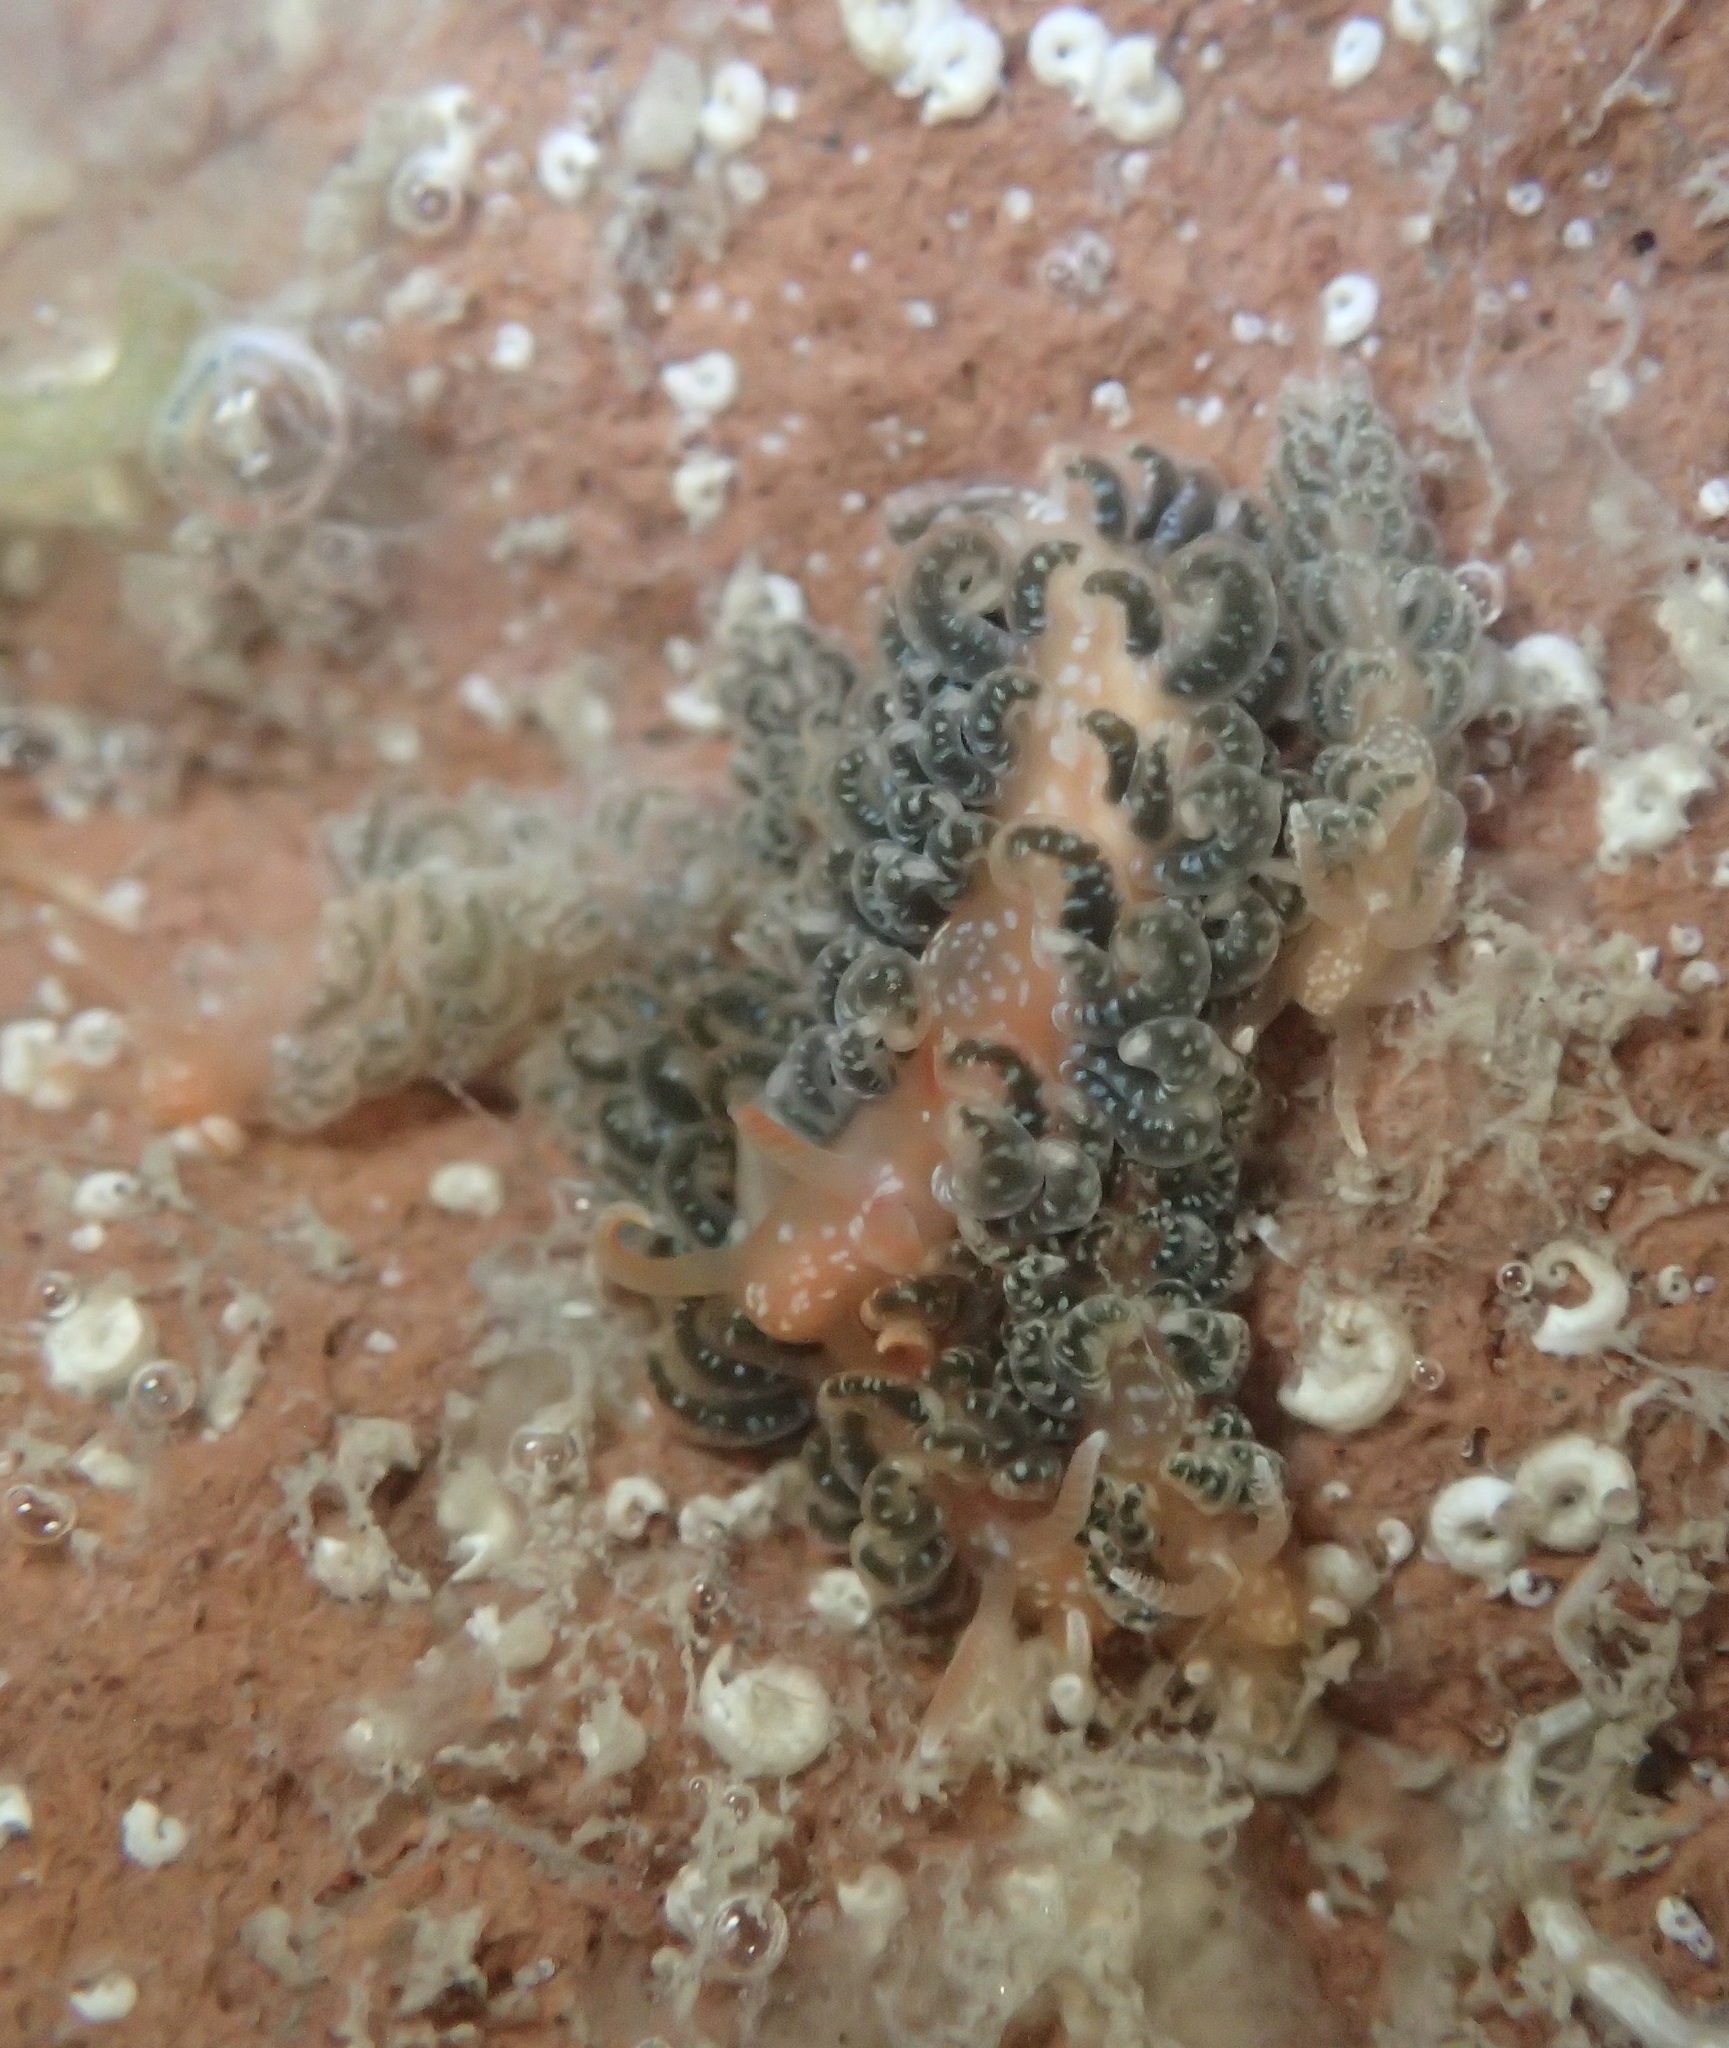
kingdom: Animalia
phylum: Mollusca
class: Gastropoda
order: Nudibranchia
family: Aeolidiidae
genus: Spurilla
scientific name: Spurilla braziliana
